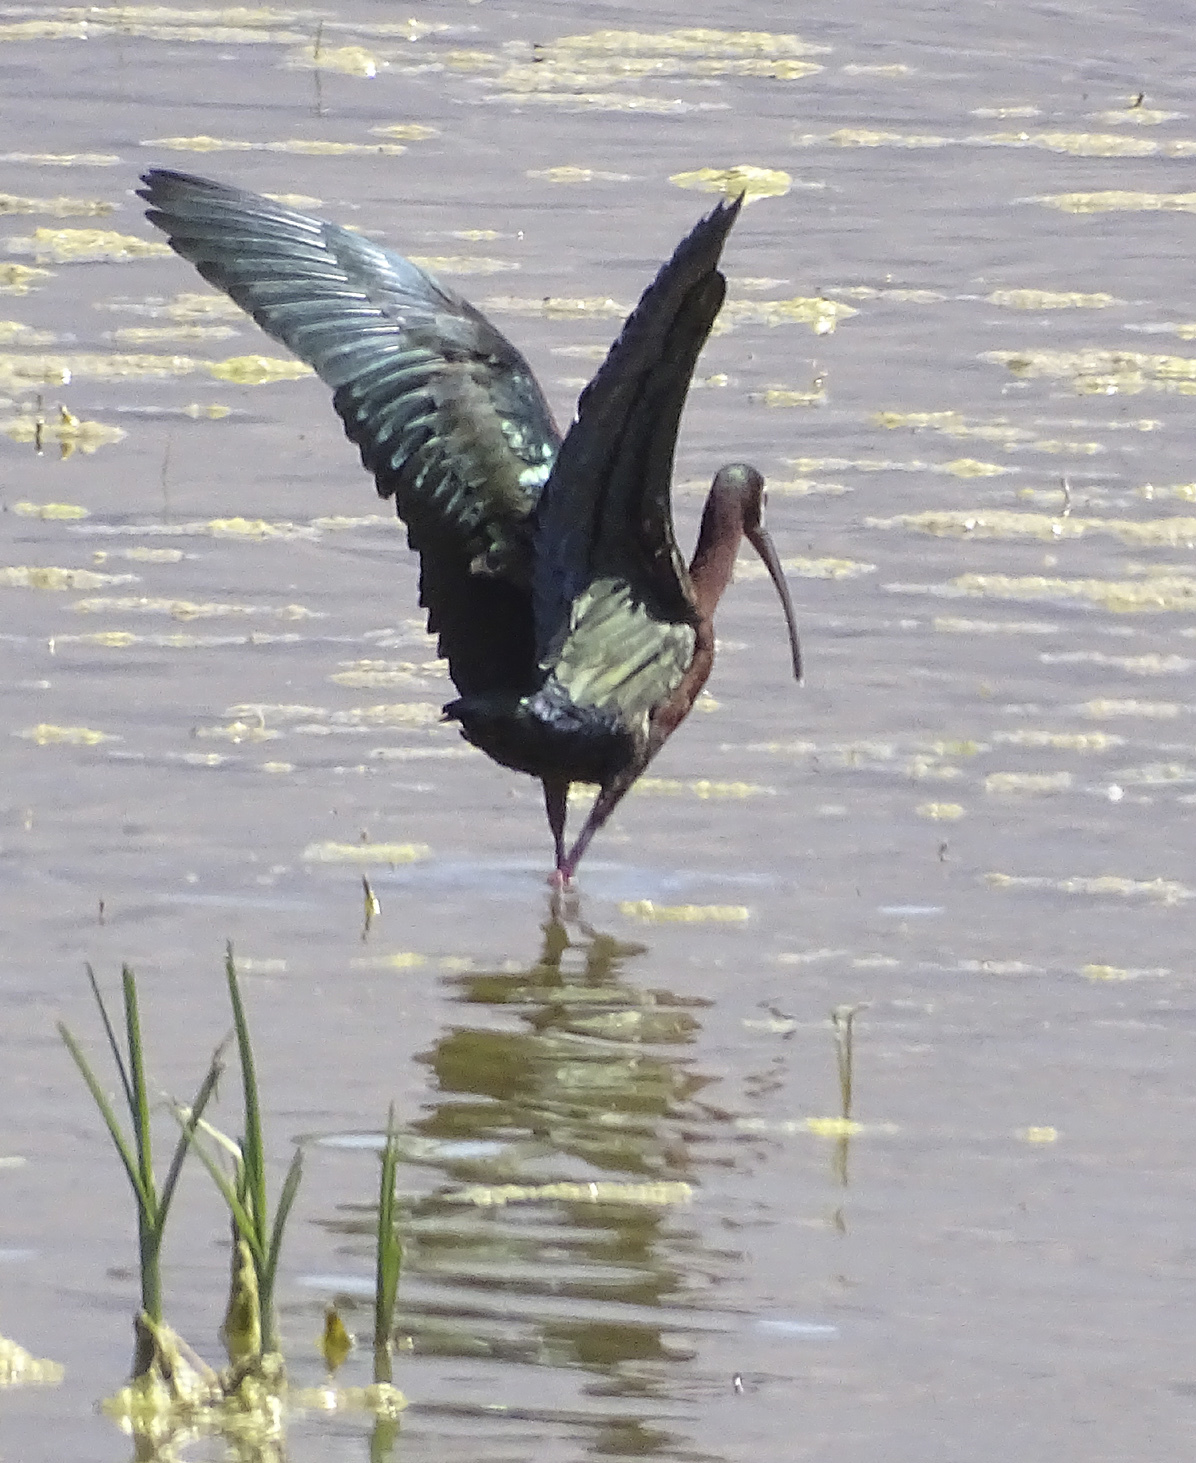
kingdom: Animalia
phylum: Chordata
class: Aves
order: Pelecaniformes
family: Threskiornithidae
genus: Plegadis
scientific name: Plegadis chihi
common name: White-faced ibis
